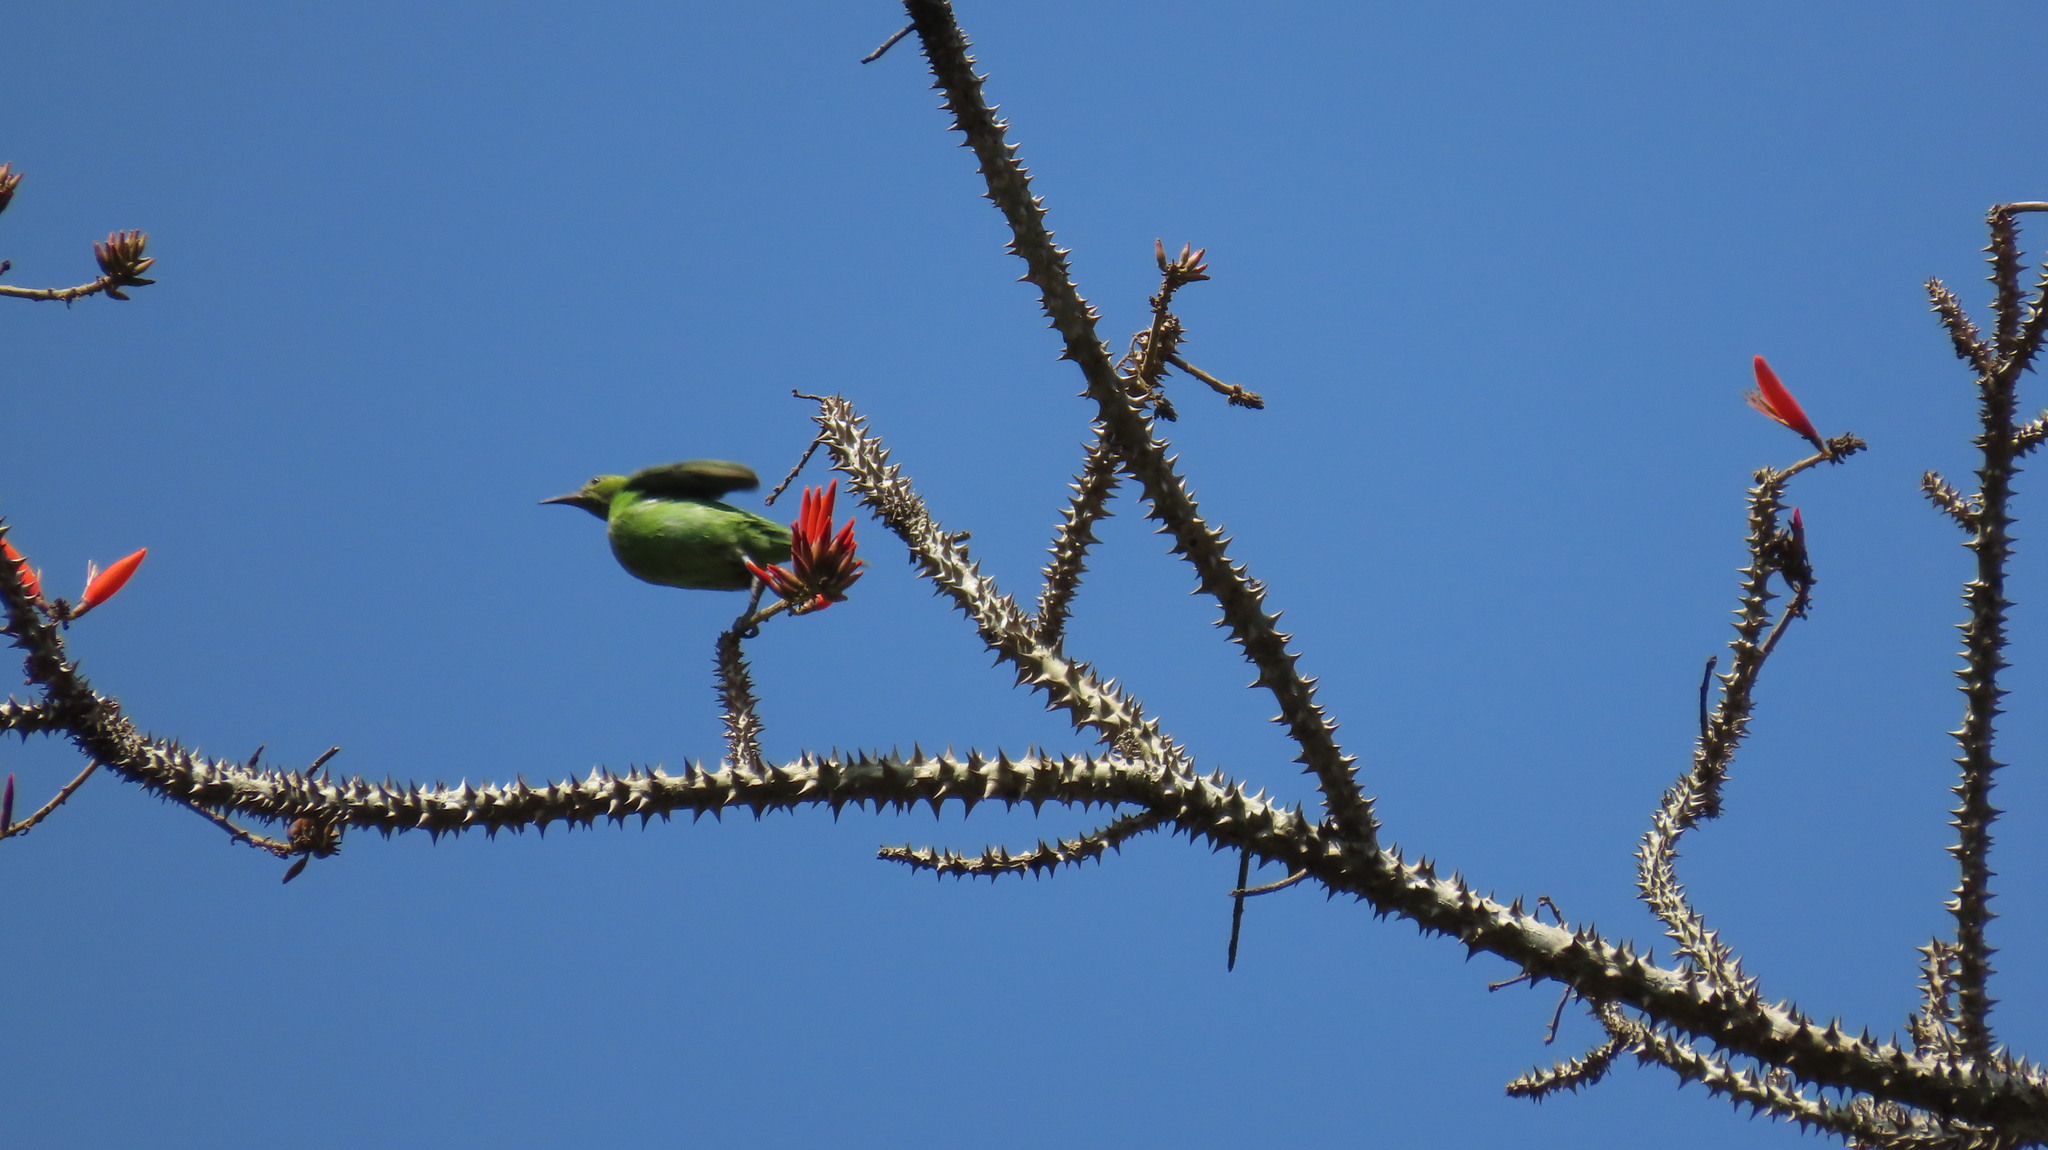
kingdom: Animalia
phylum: Chordata
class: Aves
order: Passeriformes
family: Chloropseidae
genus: Chloropsis
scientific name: Chloropsis aurifrons
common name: Golden-fronted leafbird
